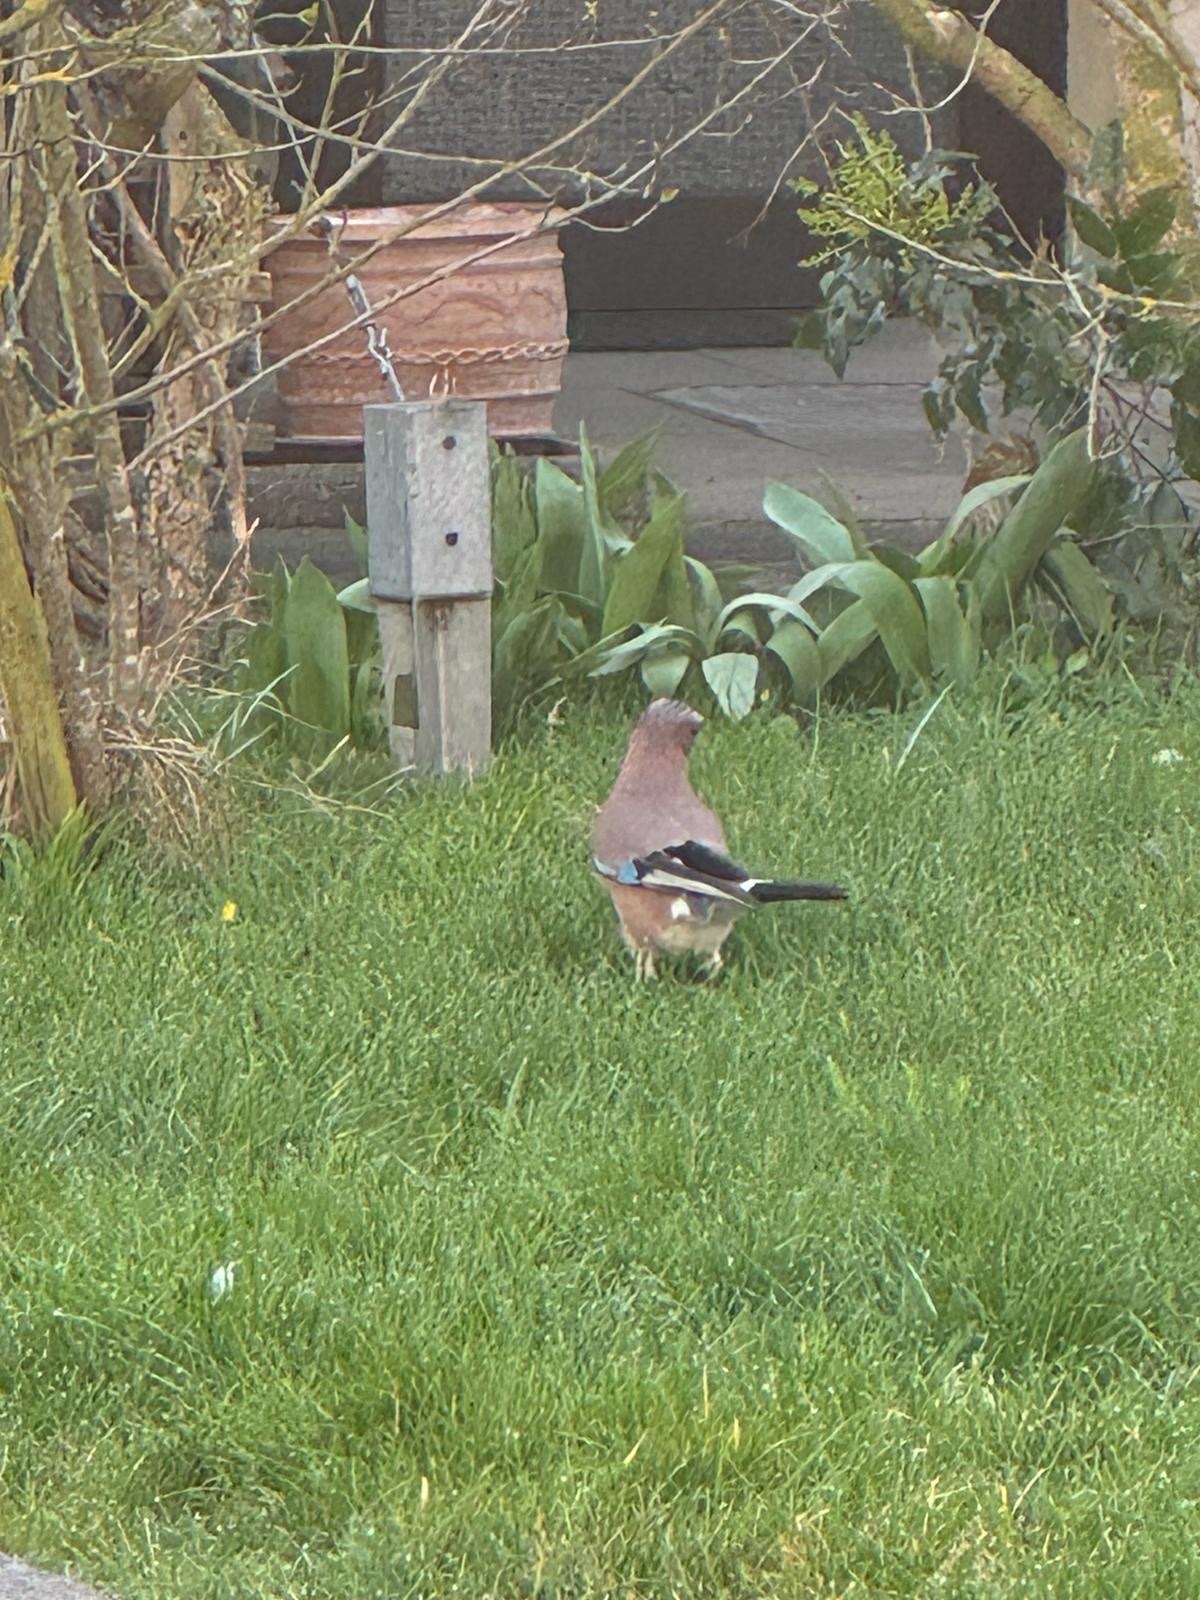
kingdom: Animalia
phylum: Chordata
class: Aves
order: Passeriformes
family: Corvidae
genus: Garrulus
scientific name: Garrulus glandarius
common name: Eurasian jay
